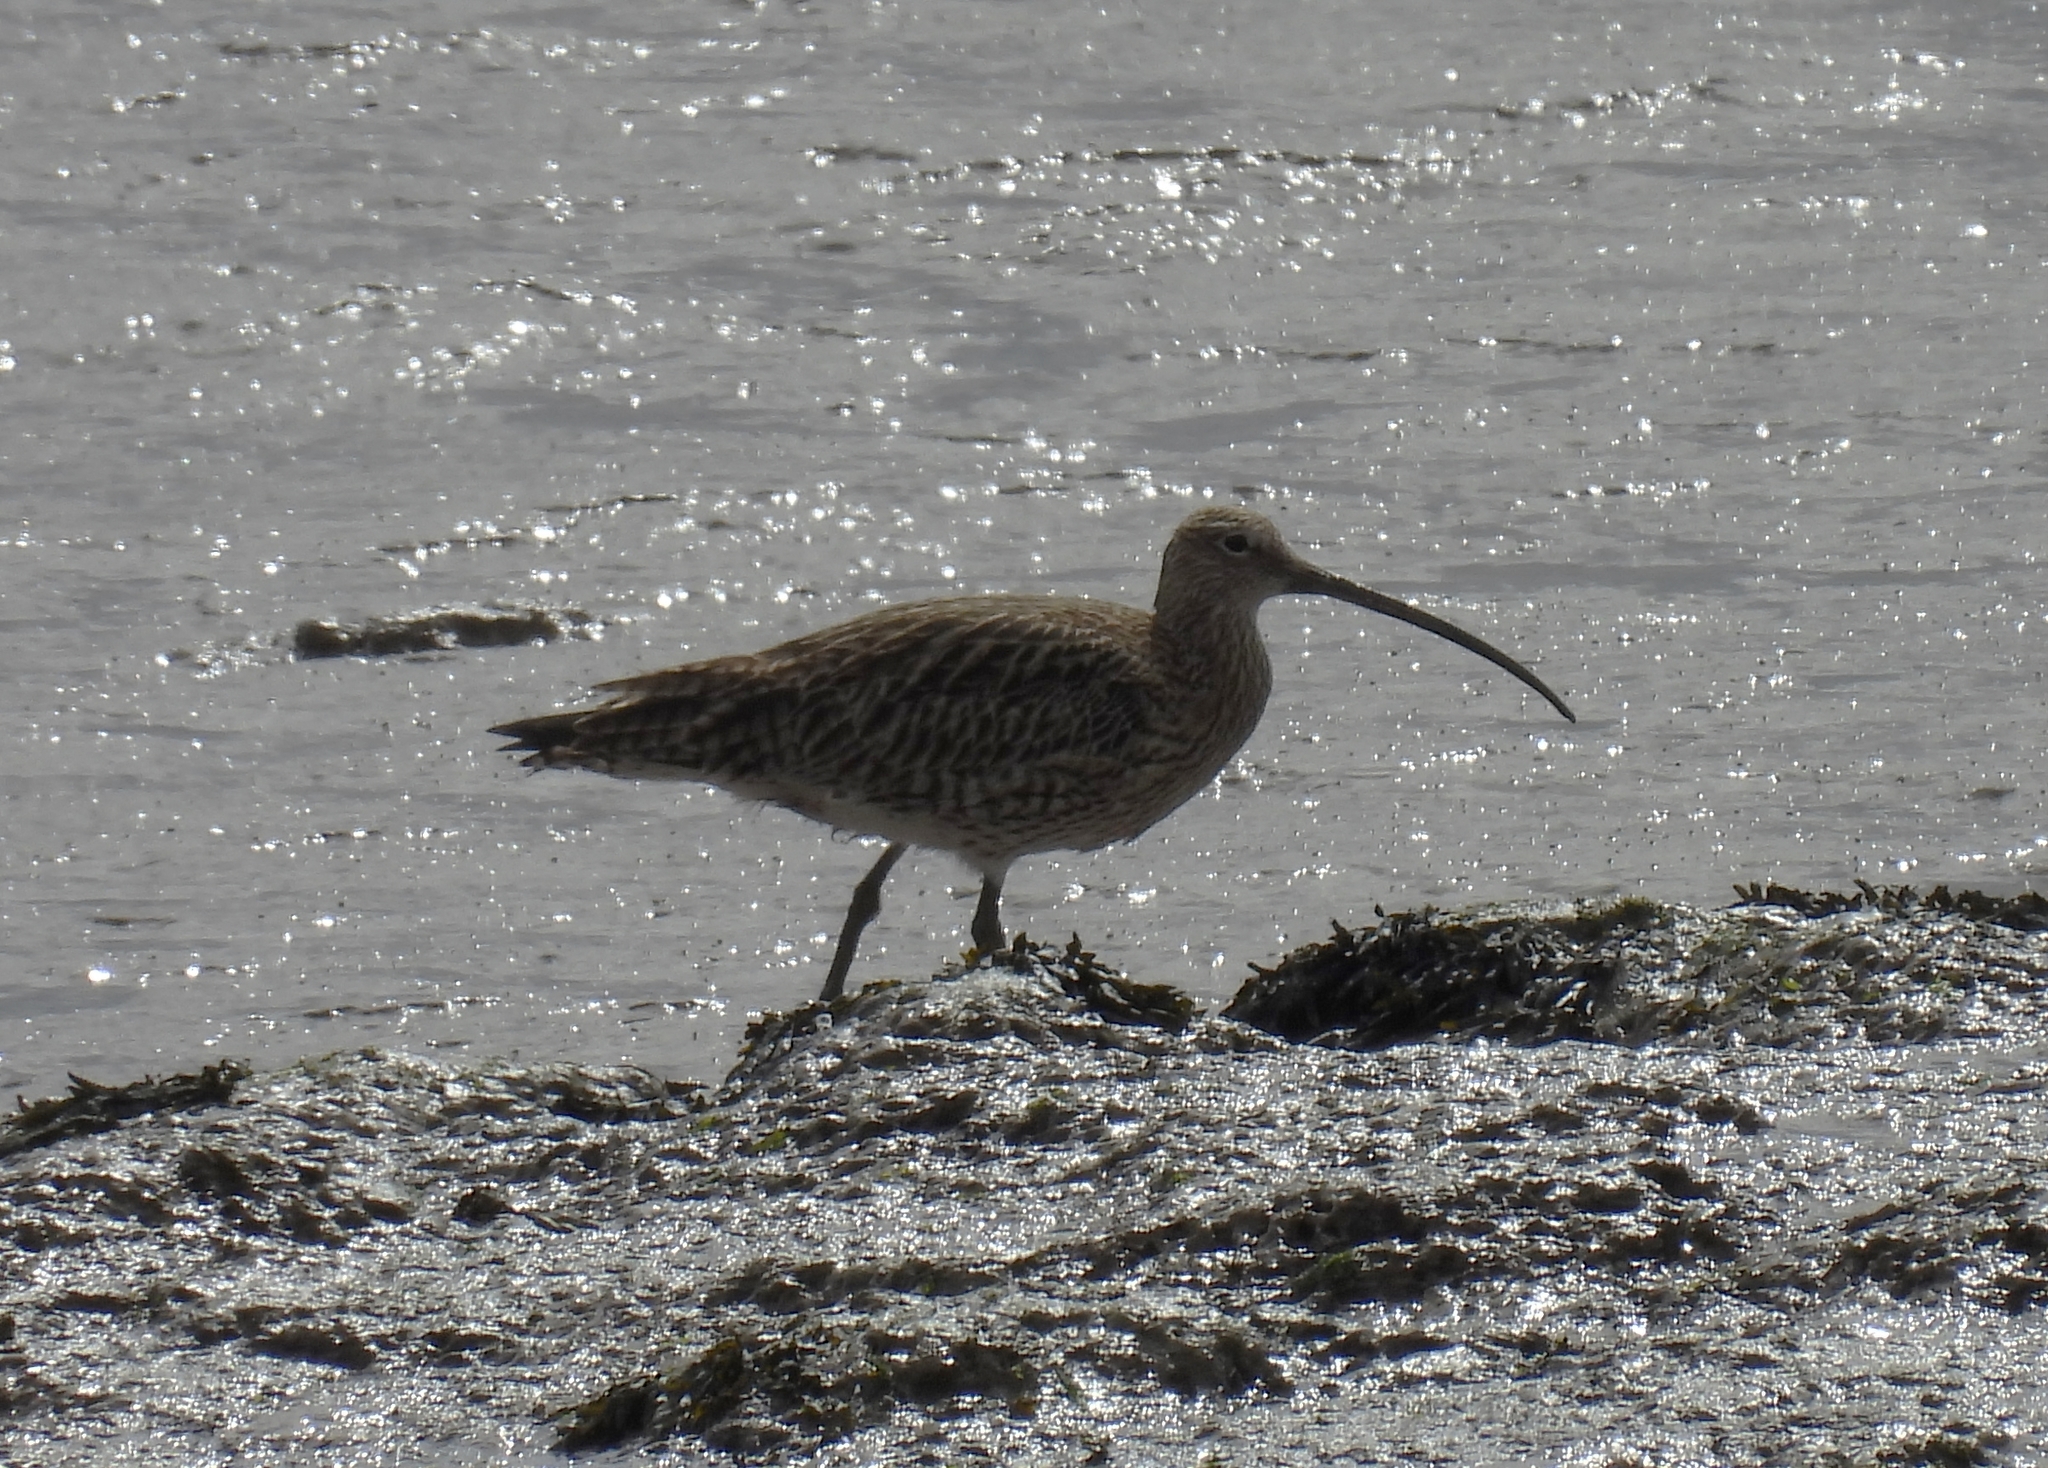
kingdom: Animalia
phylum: Chordata
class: Aves
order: Charadriiformes
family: Scolopacidae
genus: Numenius
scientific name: Numenius arquata
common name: Eurasian curlew
